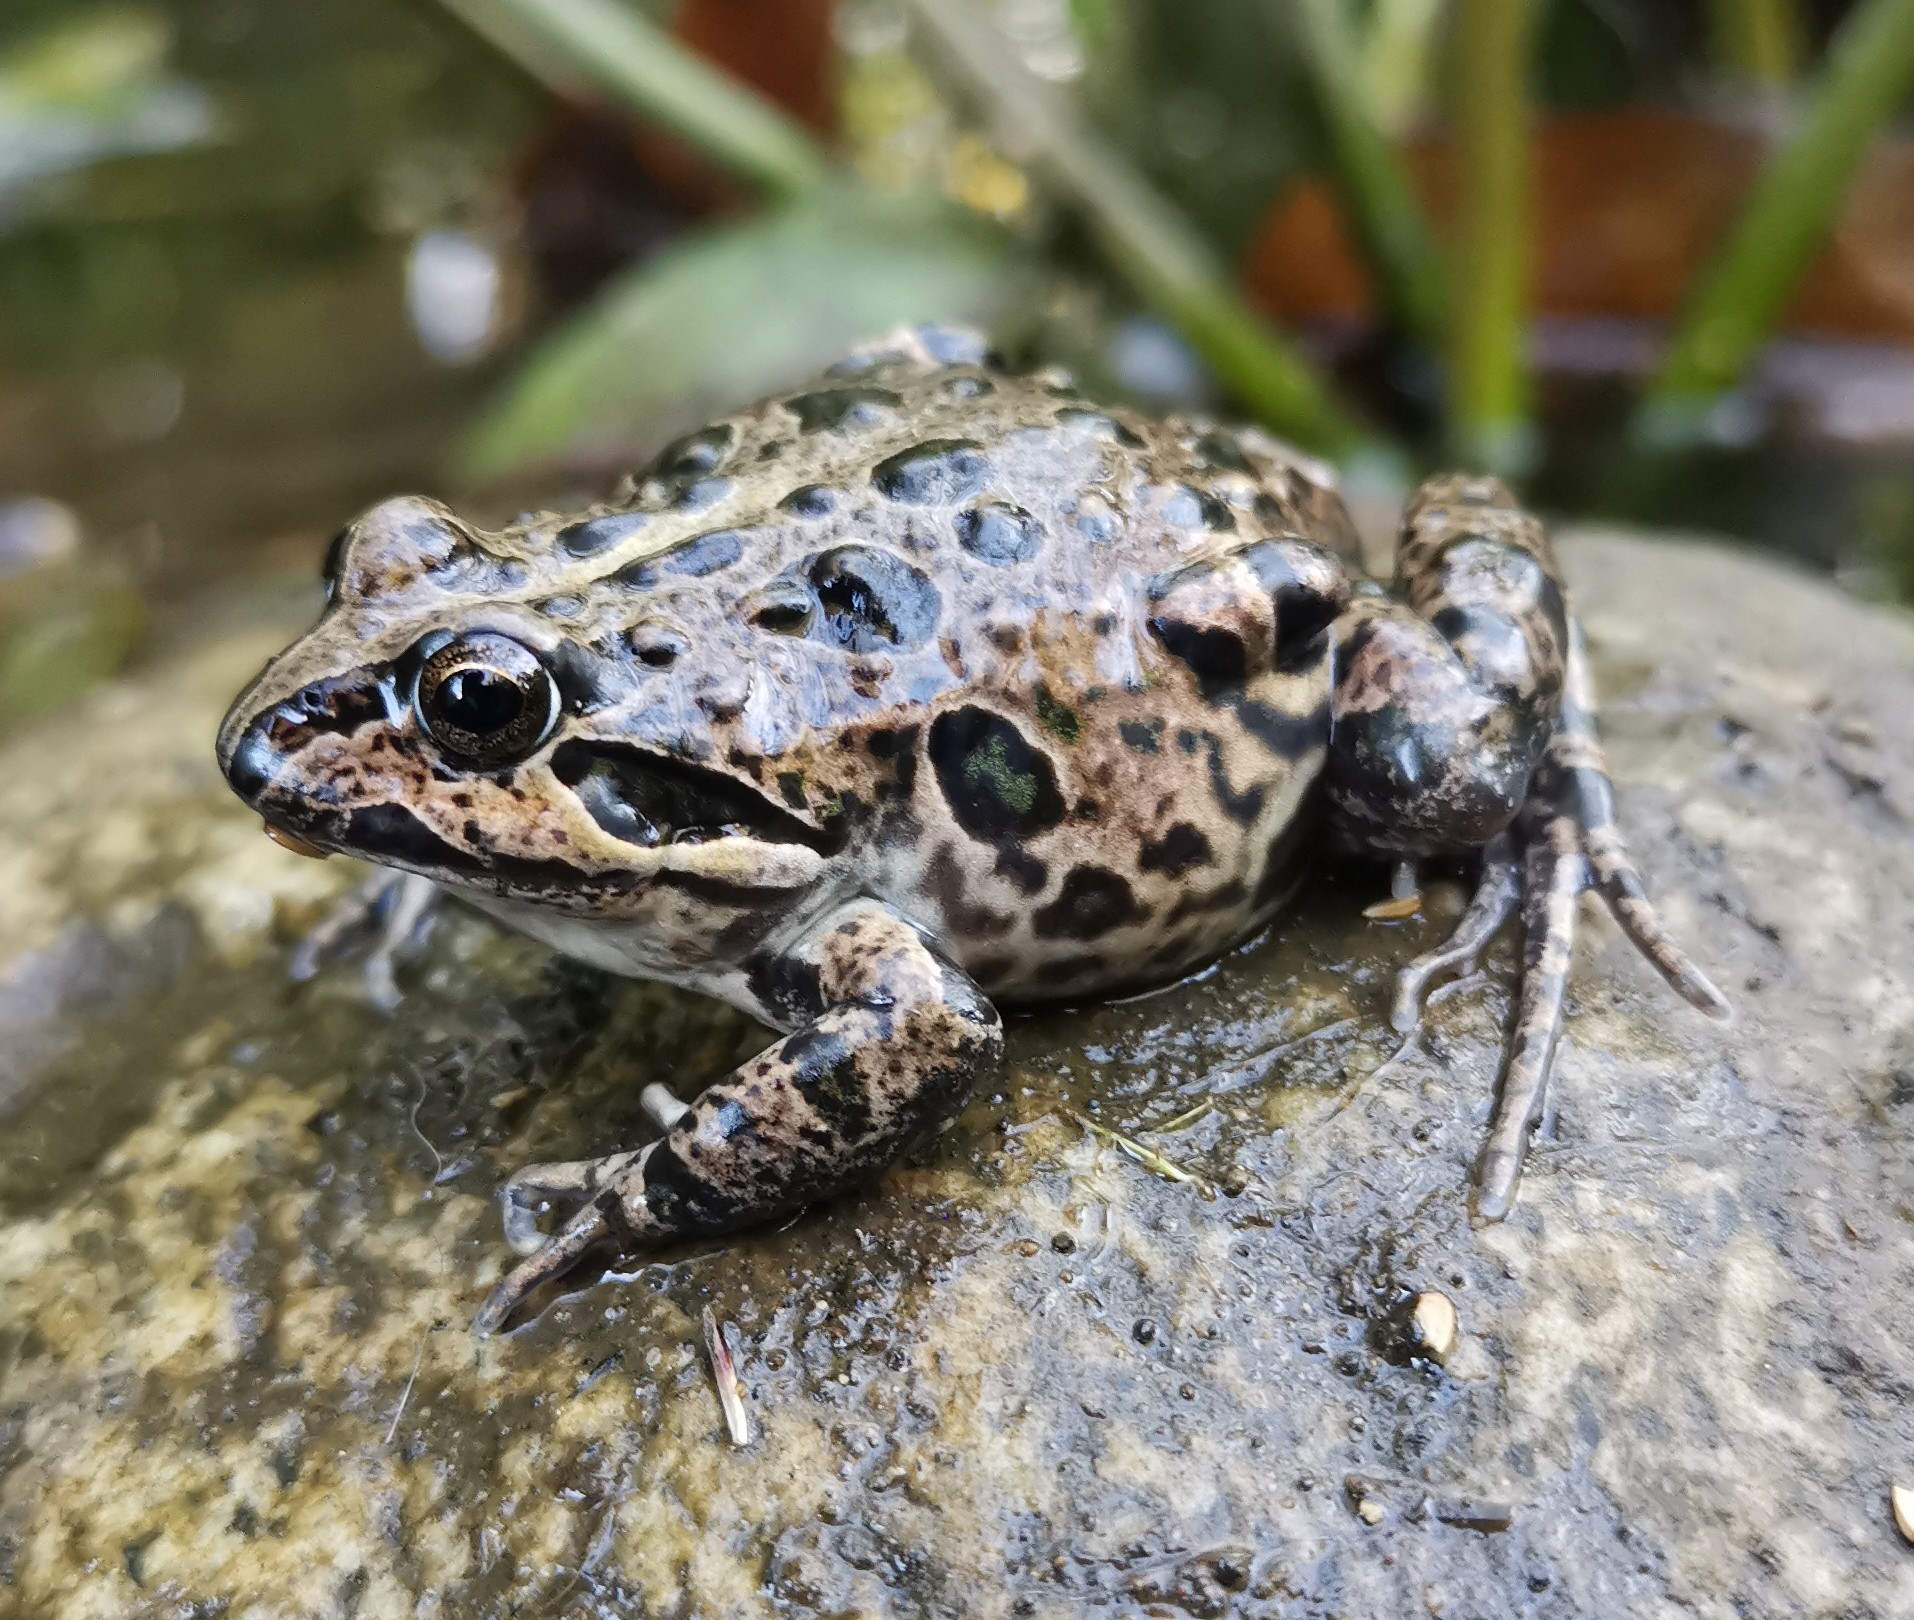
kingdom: Animalia
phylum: Chordata
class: Amphibia
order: Anura
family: Leptodactylidae
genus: Pleurodema
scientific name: Pleurodema thaul
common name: Chile four-eyed frog
